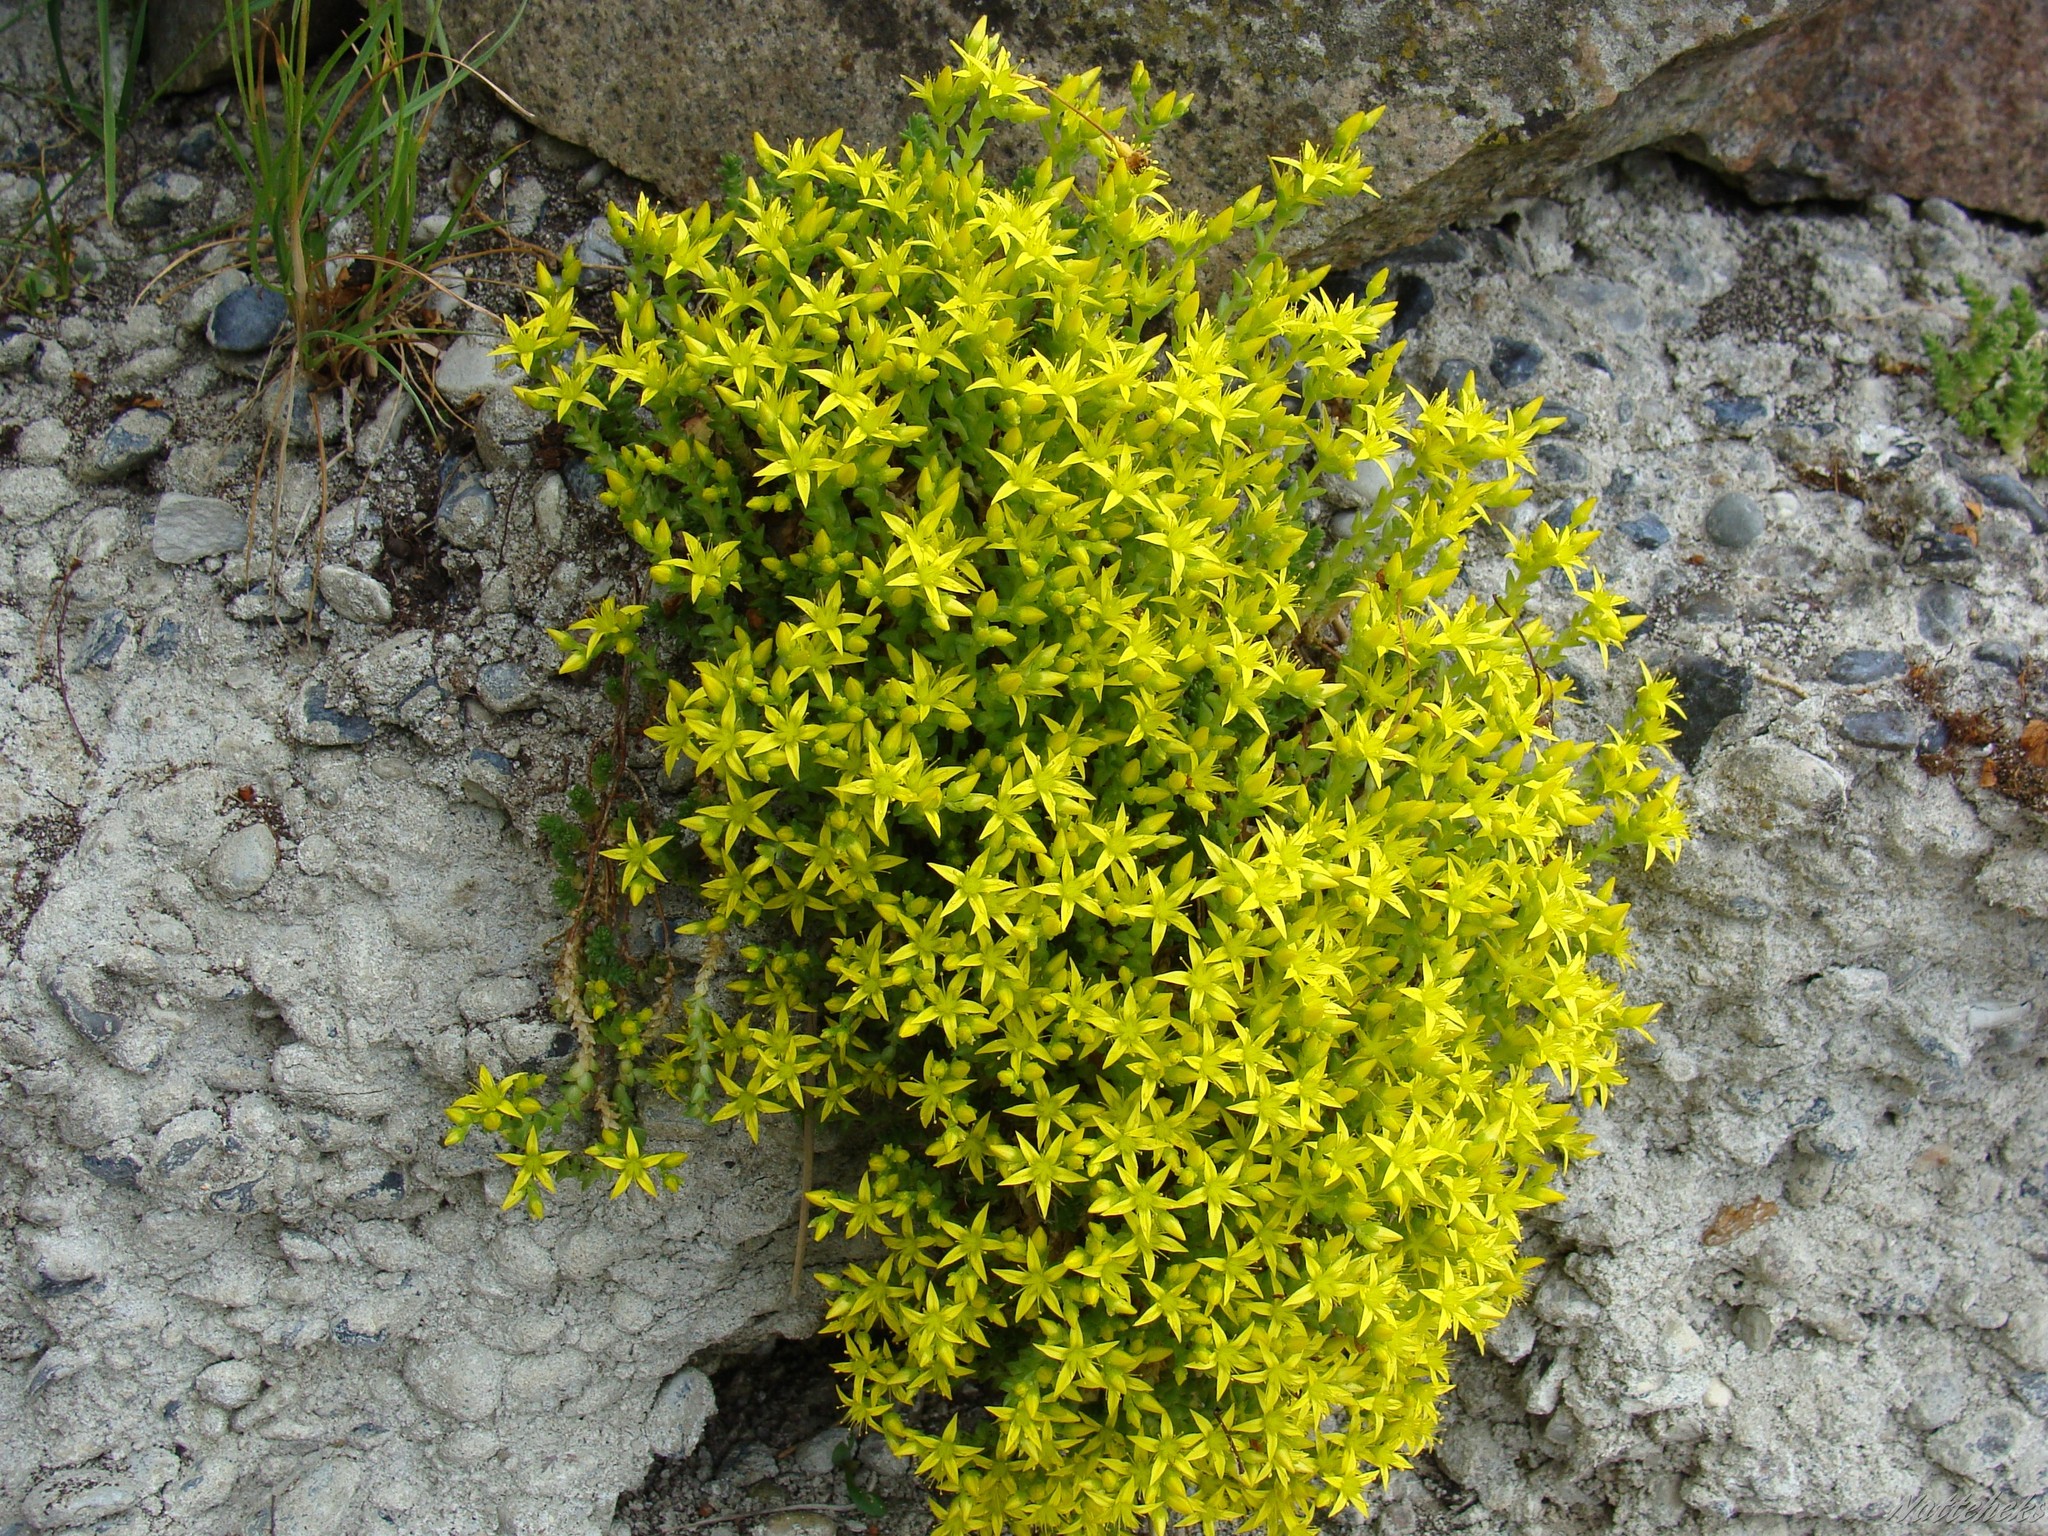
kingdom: Plantae
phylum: Tracheophyta
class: Magnoliopsida
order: Saxifragales
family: Crassulaceae
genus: Sedum
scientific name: Sedum acre
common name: Biting stonecrop
